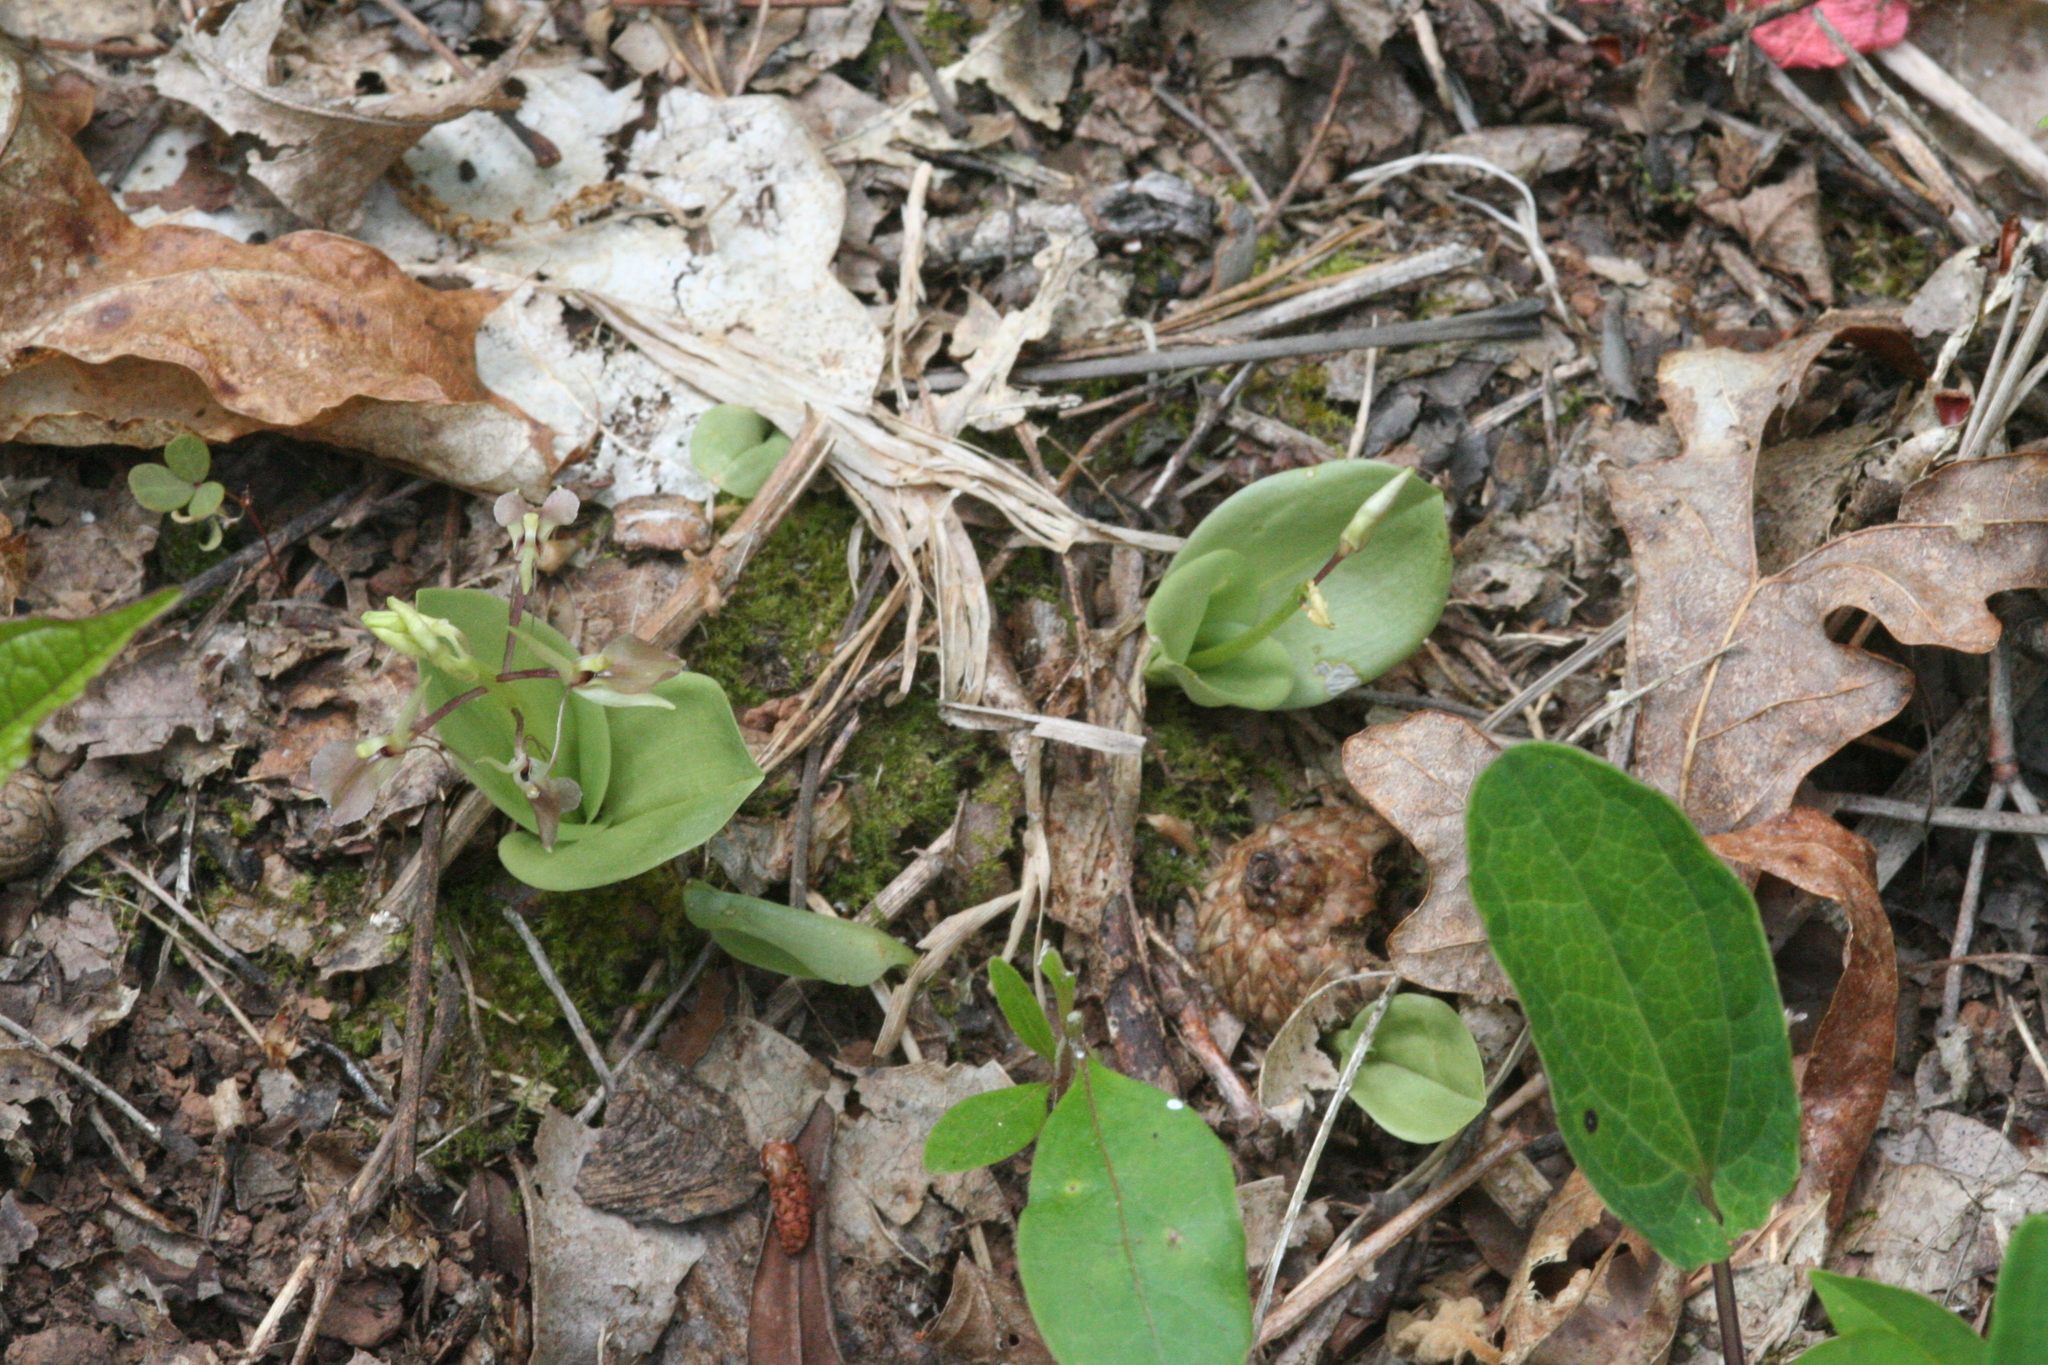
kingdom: Plantae
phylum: Tracheophyta
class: Liliopsida
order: Asparagales
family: Orchidaceae
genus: Liparis
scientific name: Liparis liliifolia
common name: Brown wide-lip orchid
